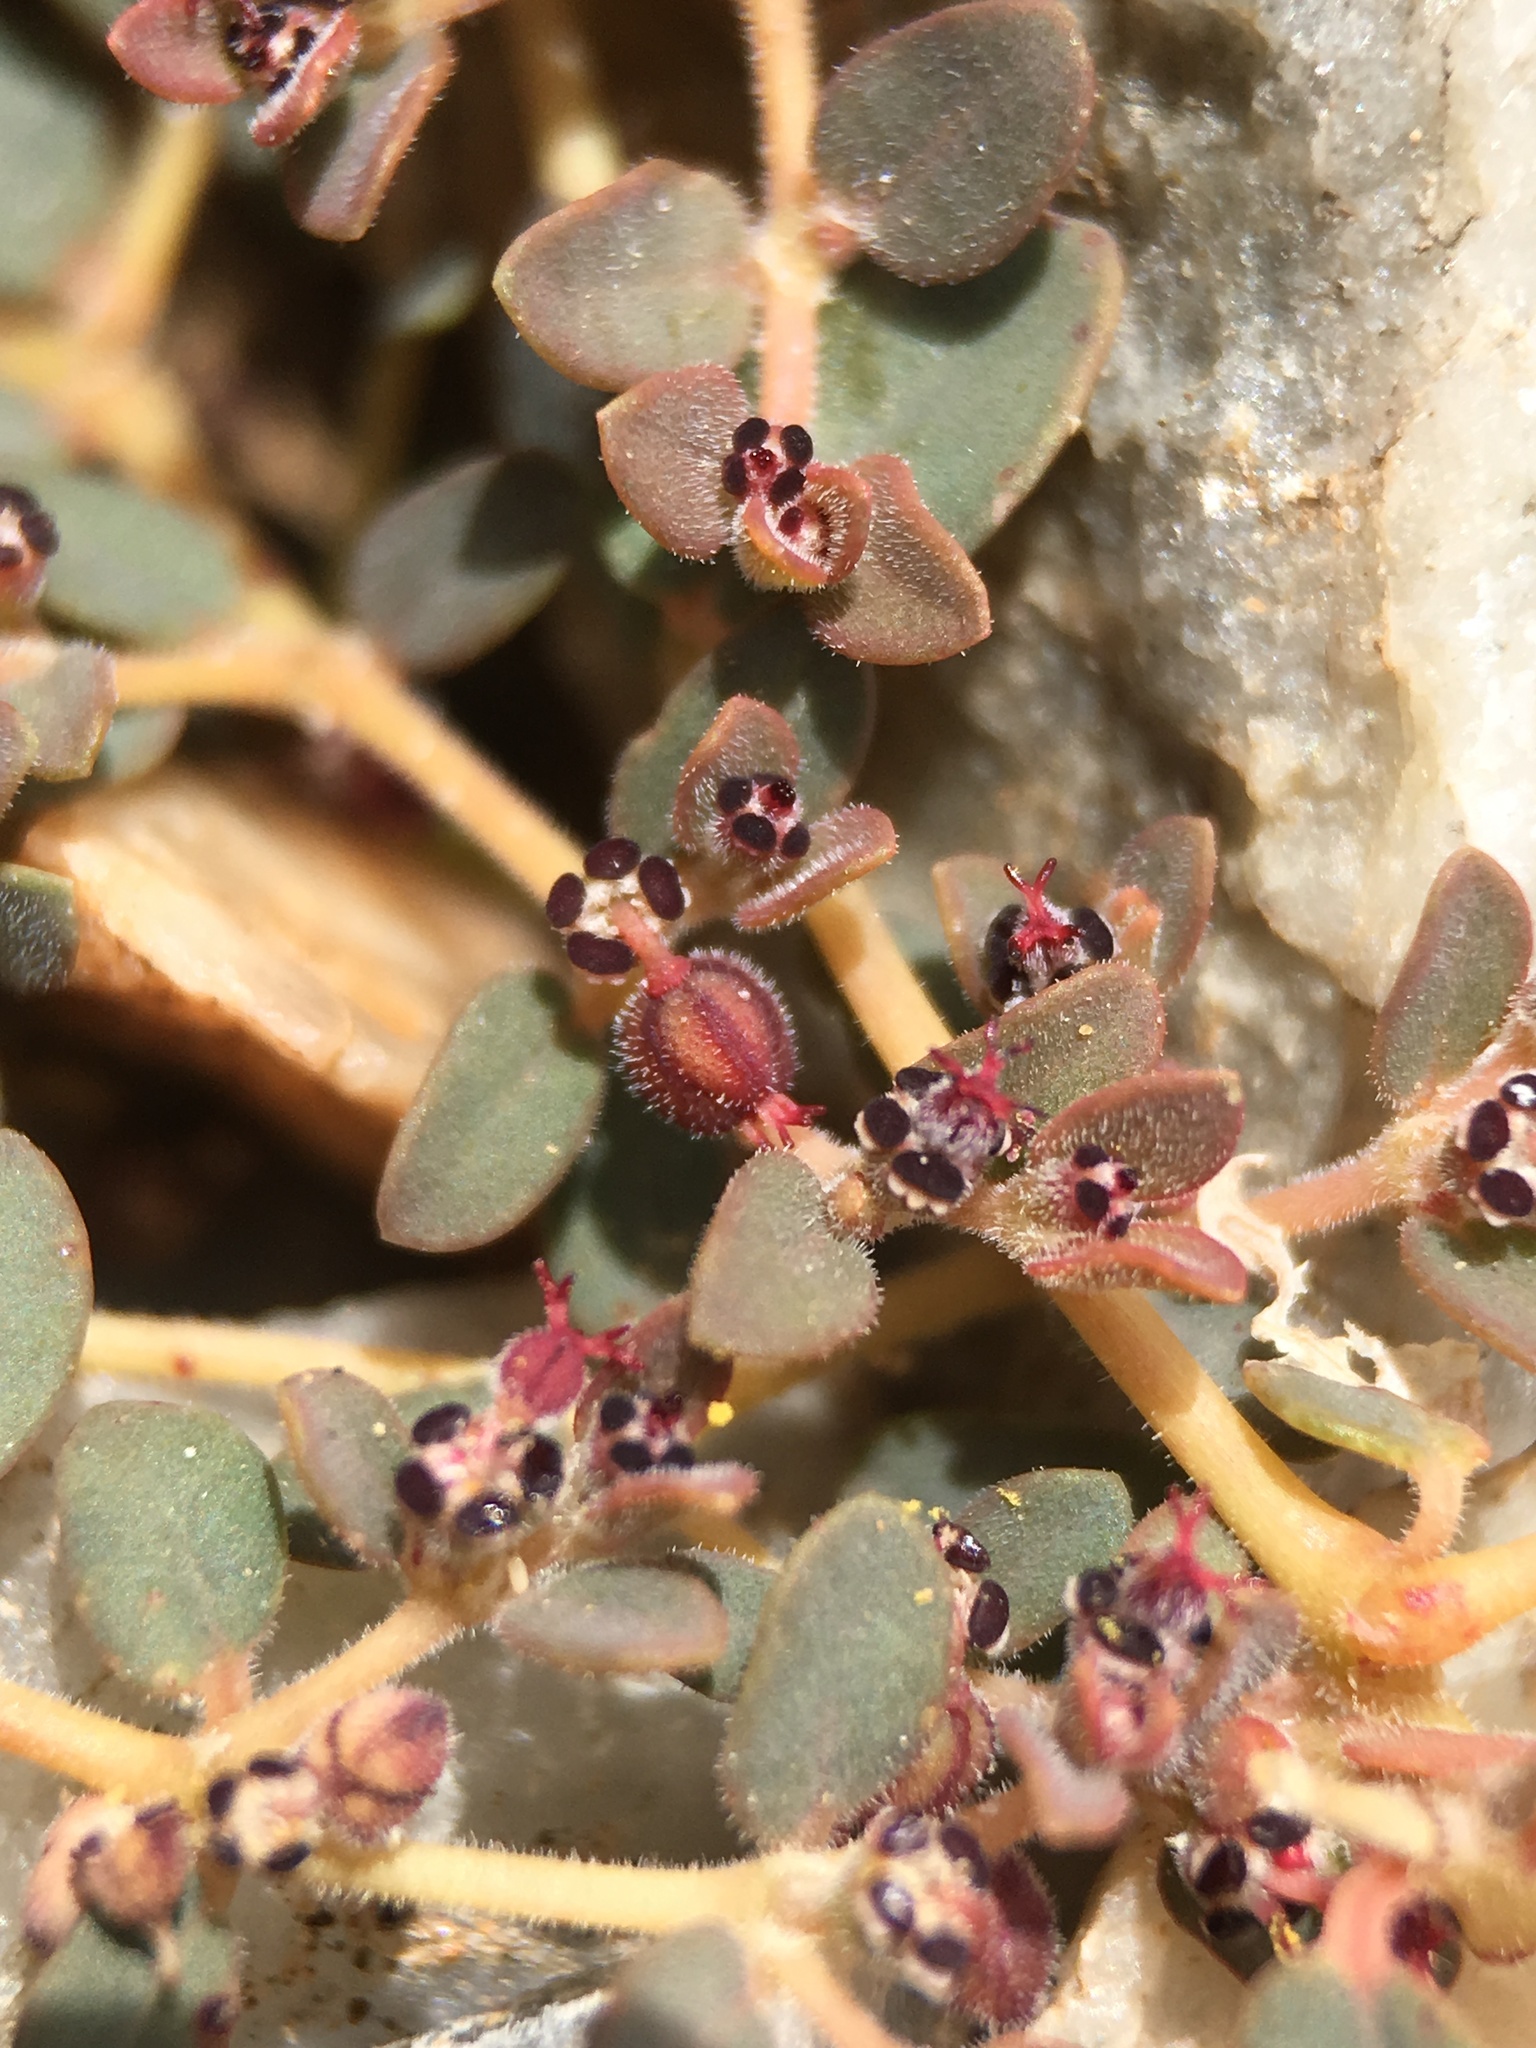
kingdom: Plantae
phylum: Tracheophyta
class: Magnoliopsida
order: Malpighiales
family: Euphorbiaceae
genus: Euphorbia
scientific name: Euphorbia polycarpa
